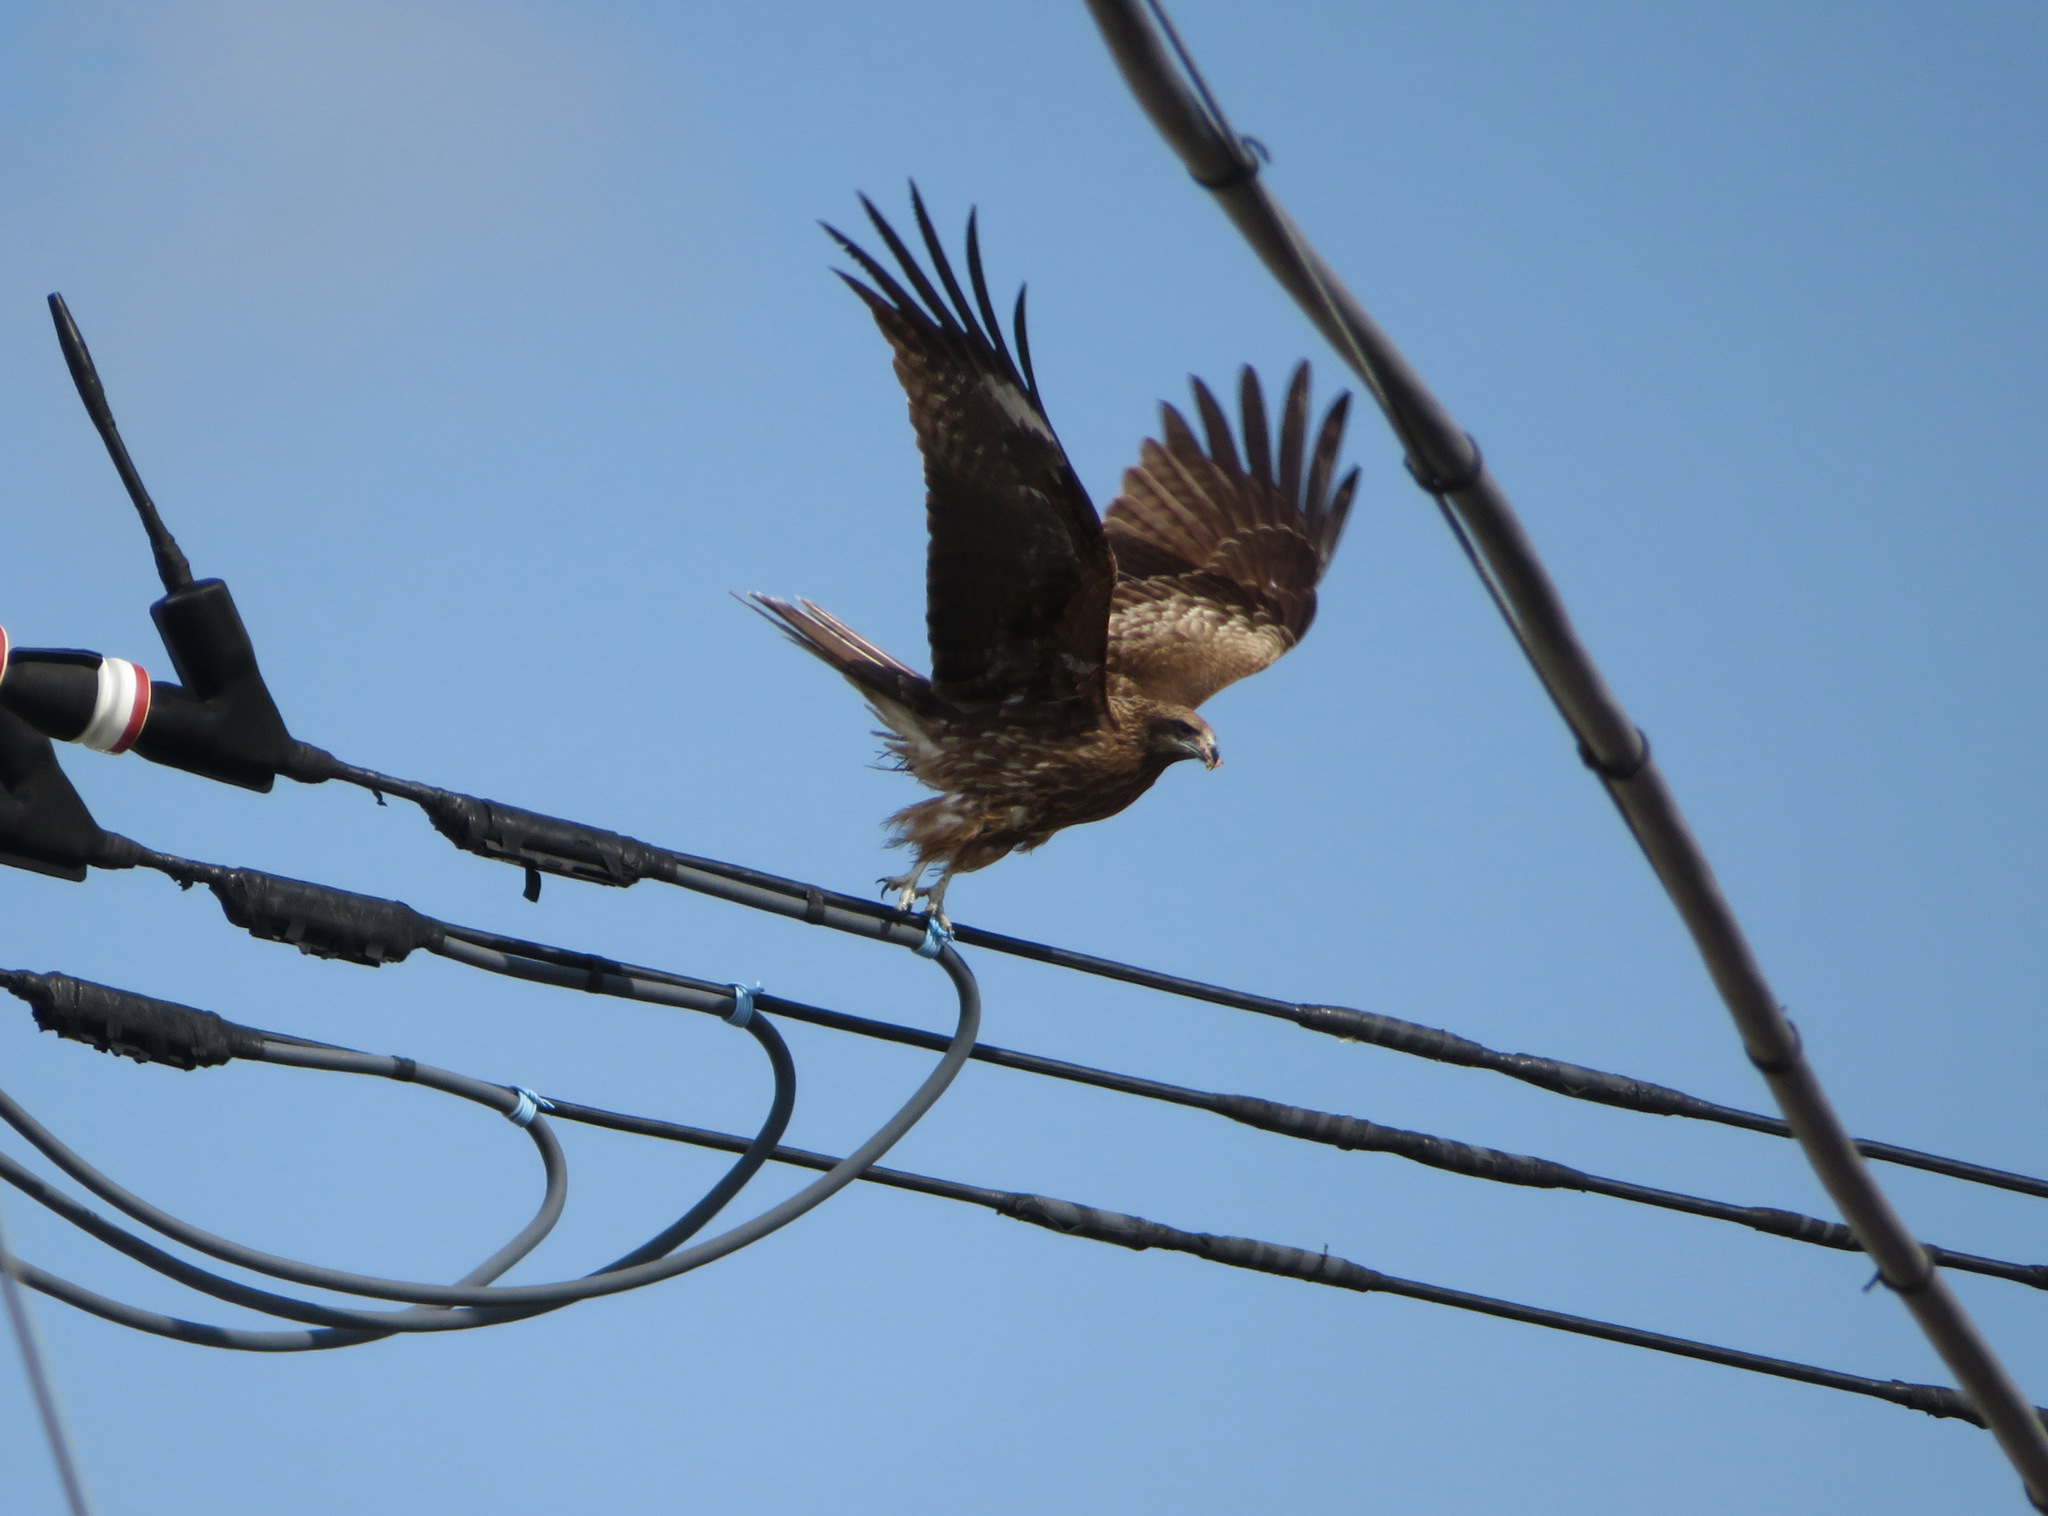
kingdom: Animalia
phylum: Chordata
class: Aves
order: Accipitriformes
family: Accipitridae
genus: Milvus
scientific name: Milvus migrans
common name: Black kite
